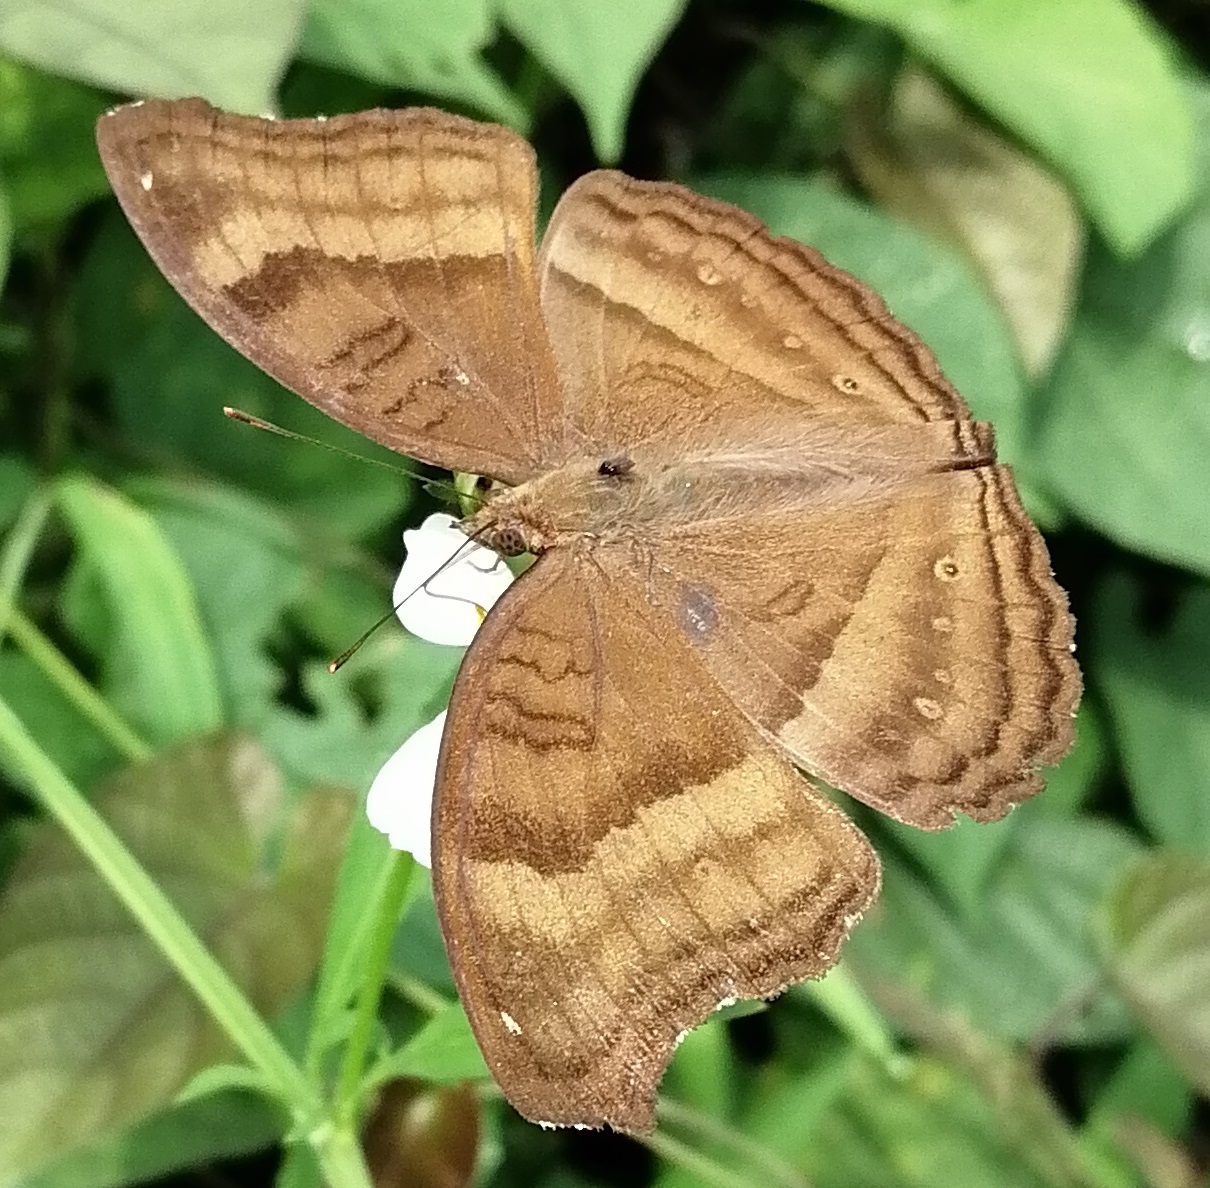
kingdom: Animalia
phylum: Arthropoda
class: Insecta
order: Lepidoptera
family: Nymphalidae
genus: Junonia
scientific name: Junonia iphita
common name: Chocolate pansy
